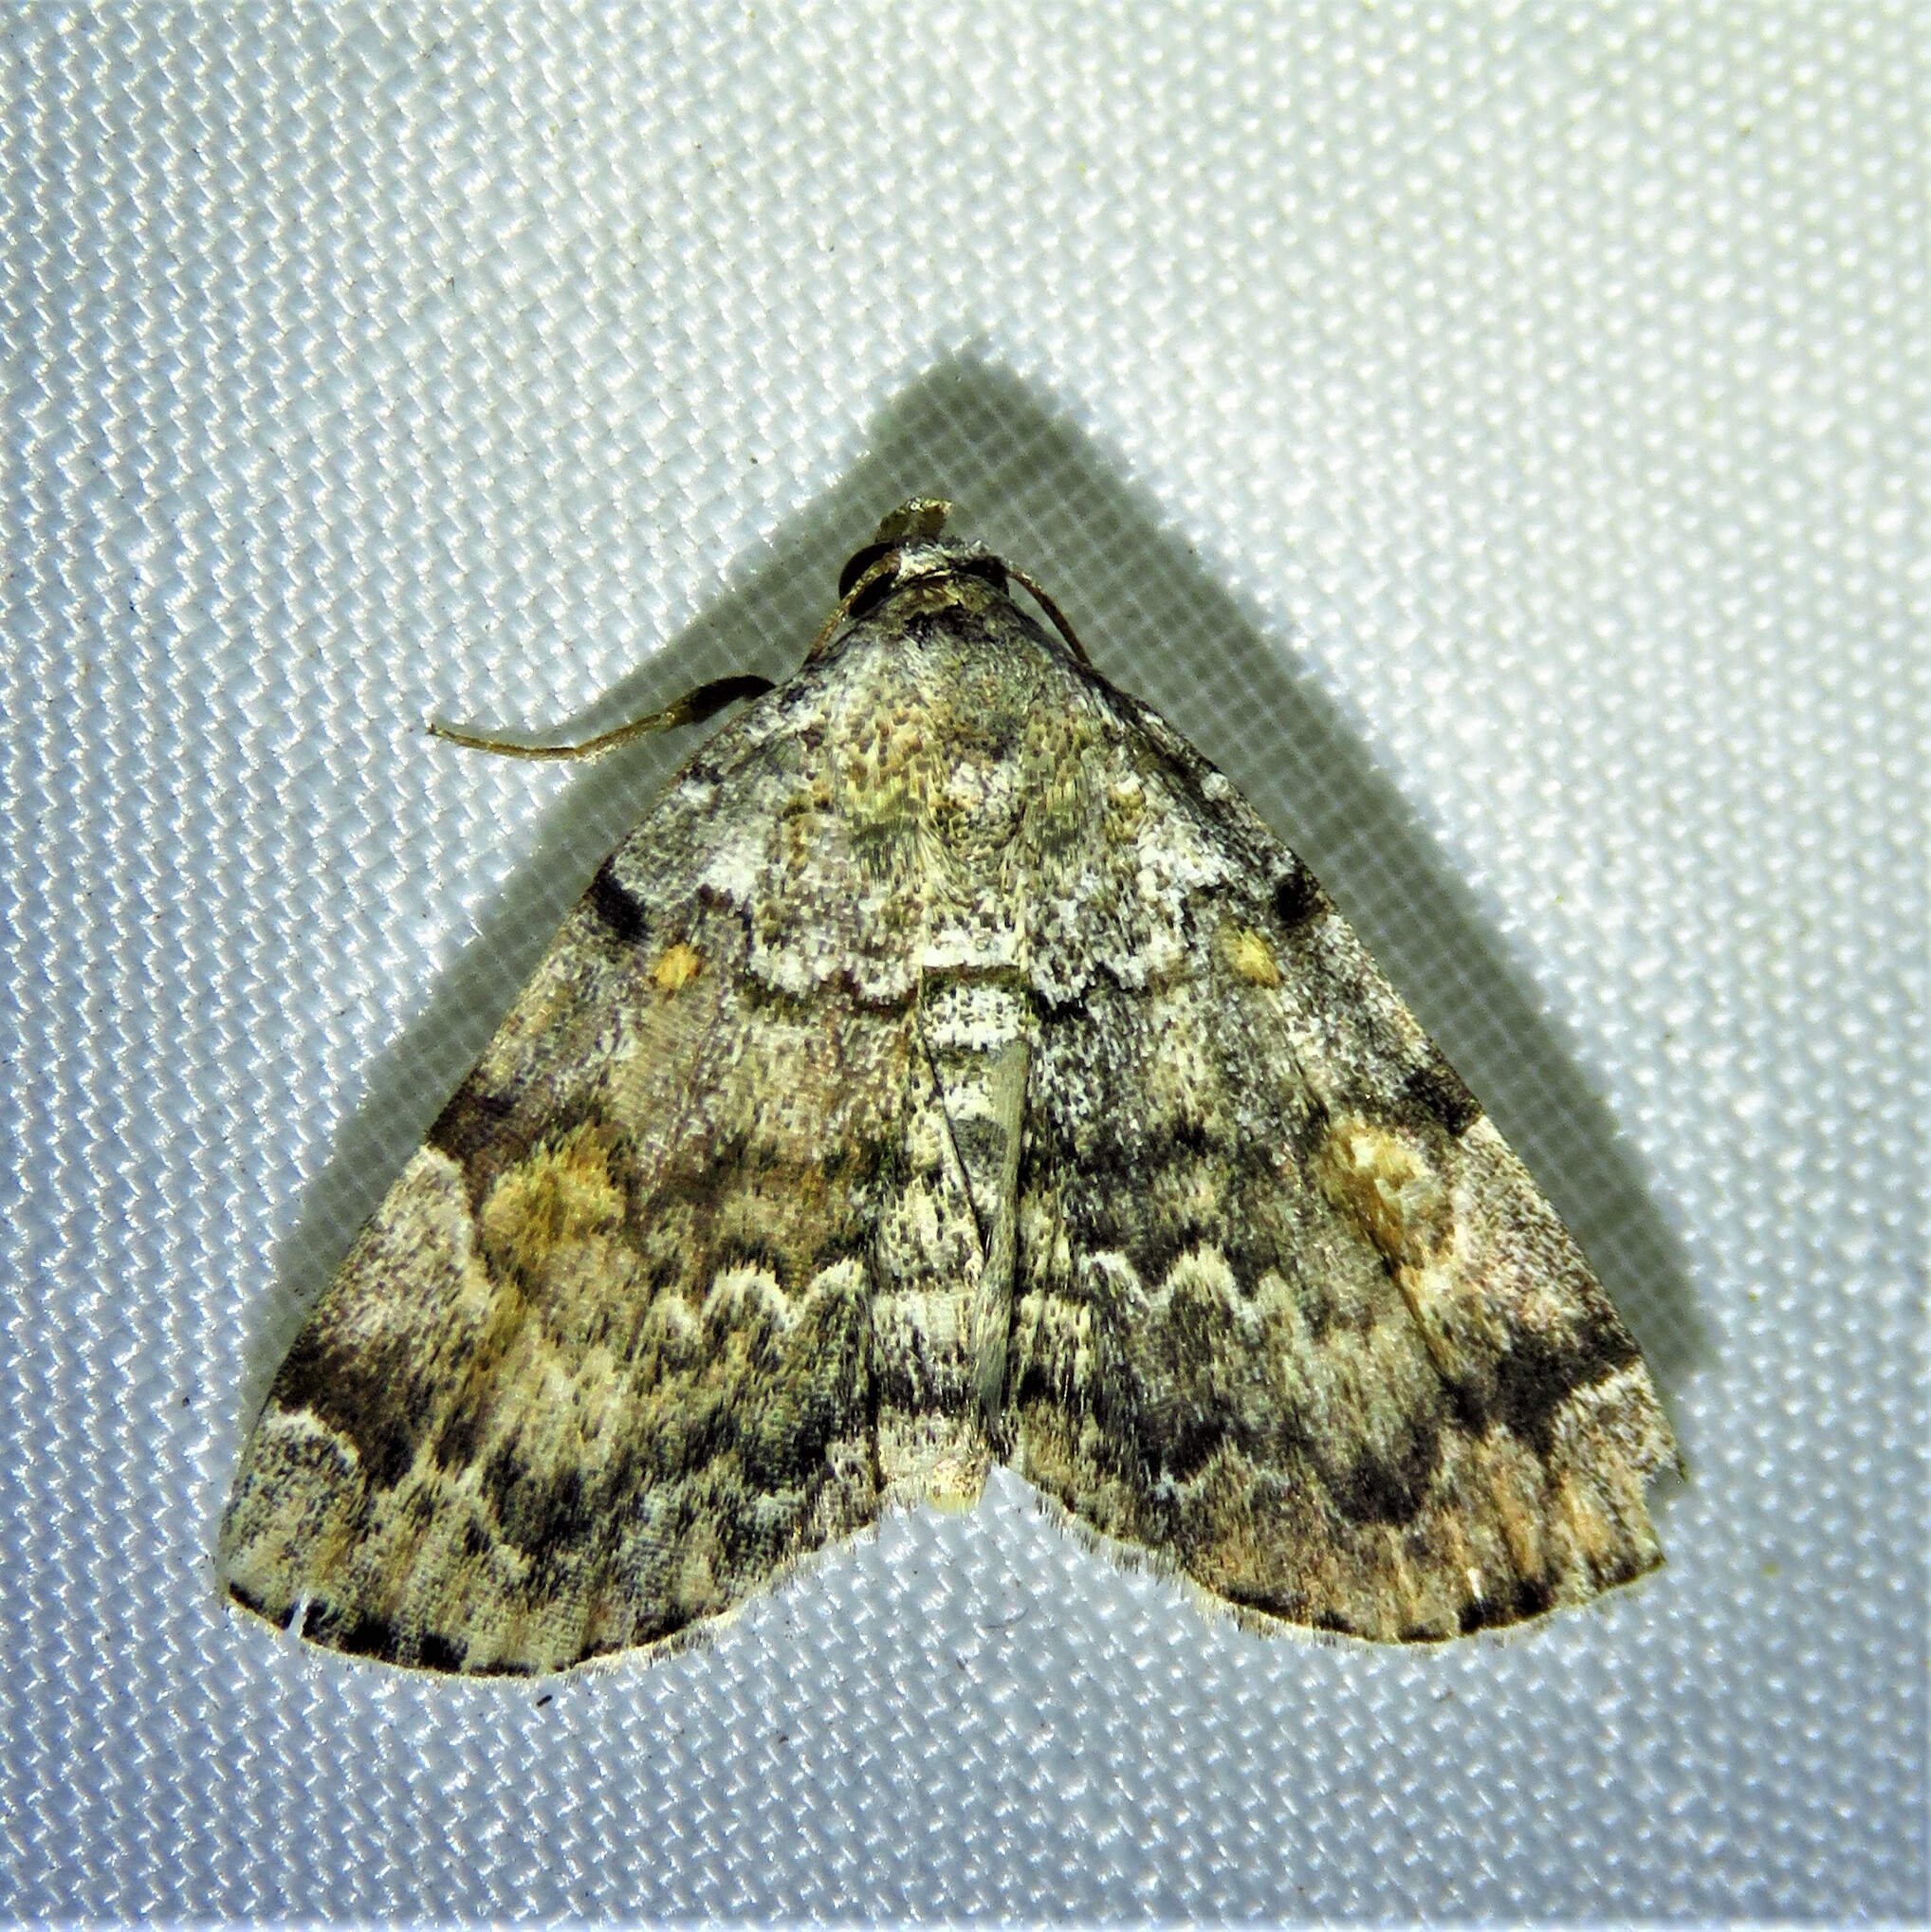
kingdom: Animalia
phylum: Arthropoda
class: Insecta
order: Lepidoptera
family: Erebidae
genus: Idia
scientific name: Idia americalis
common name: American idia moth
